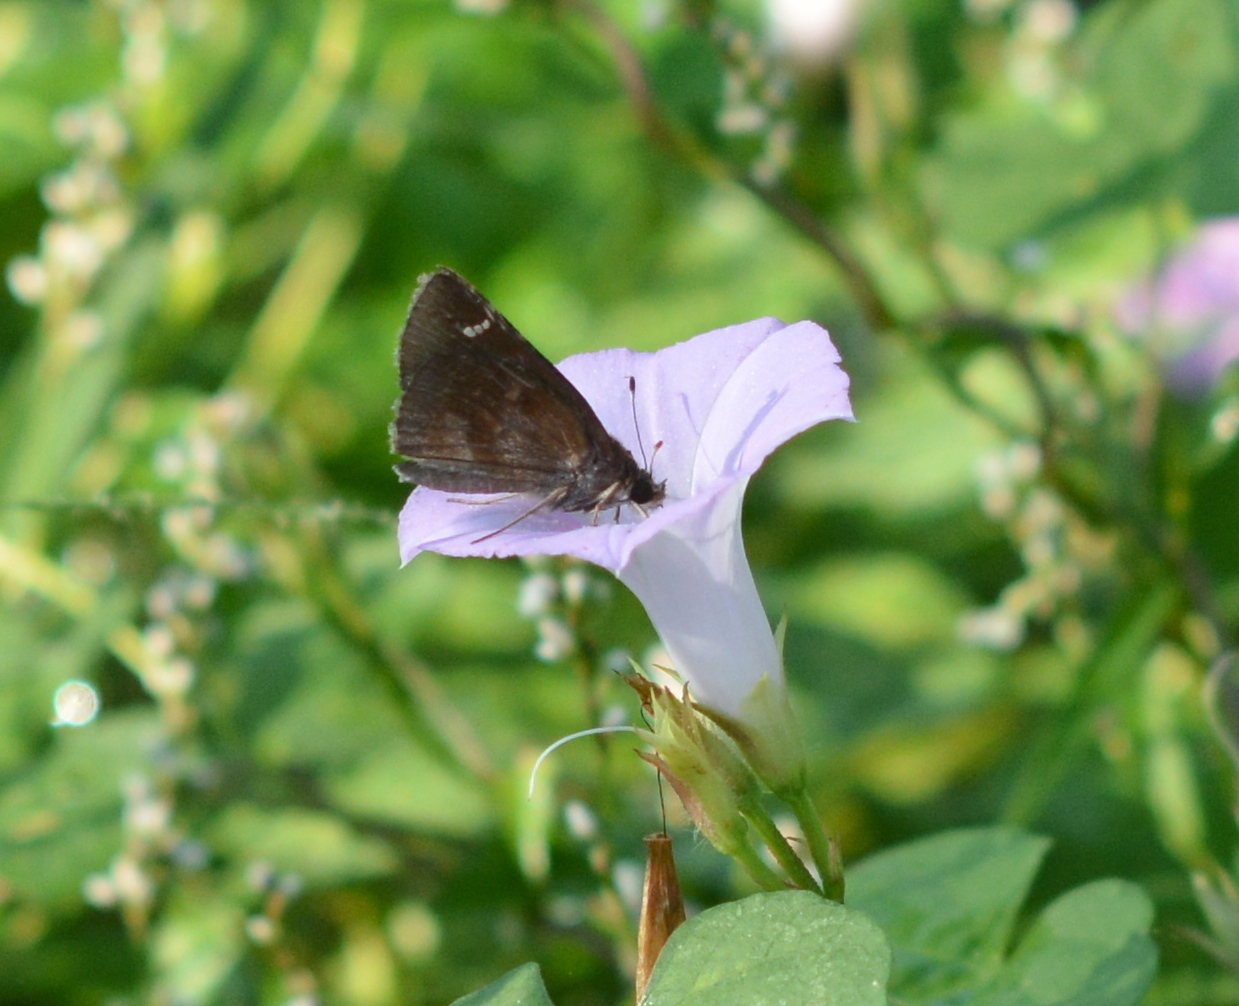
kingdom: Animalia
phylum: Arthropoda
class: Insecta
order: Lepidoptera
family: Hesperiidae
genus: Lerema
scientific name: Lerema accius
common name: Clouded skipper
